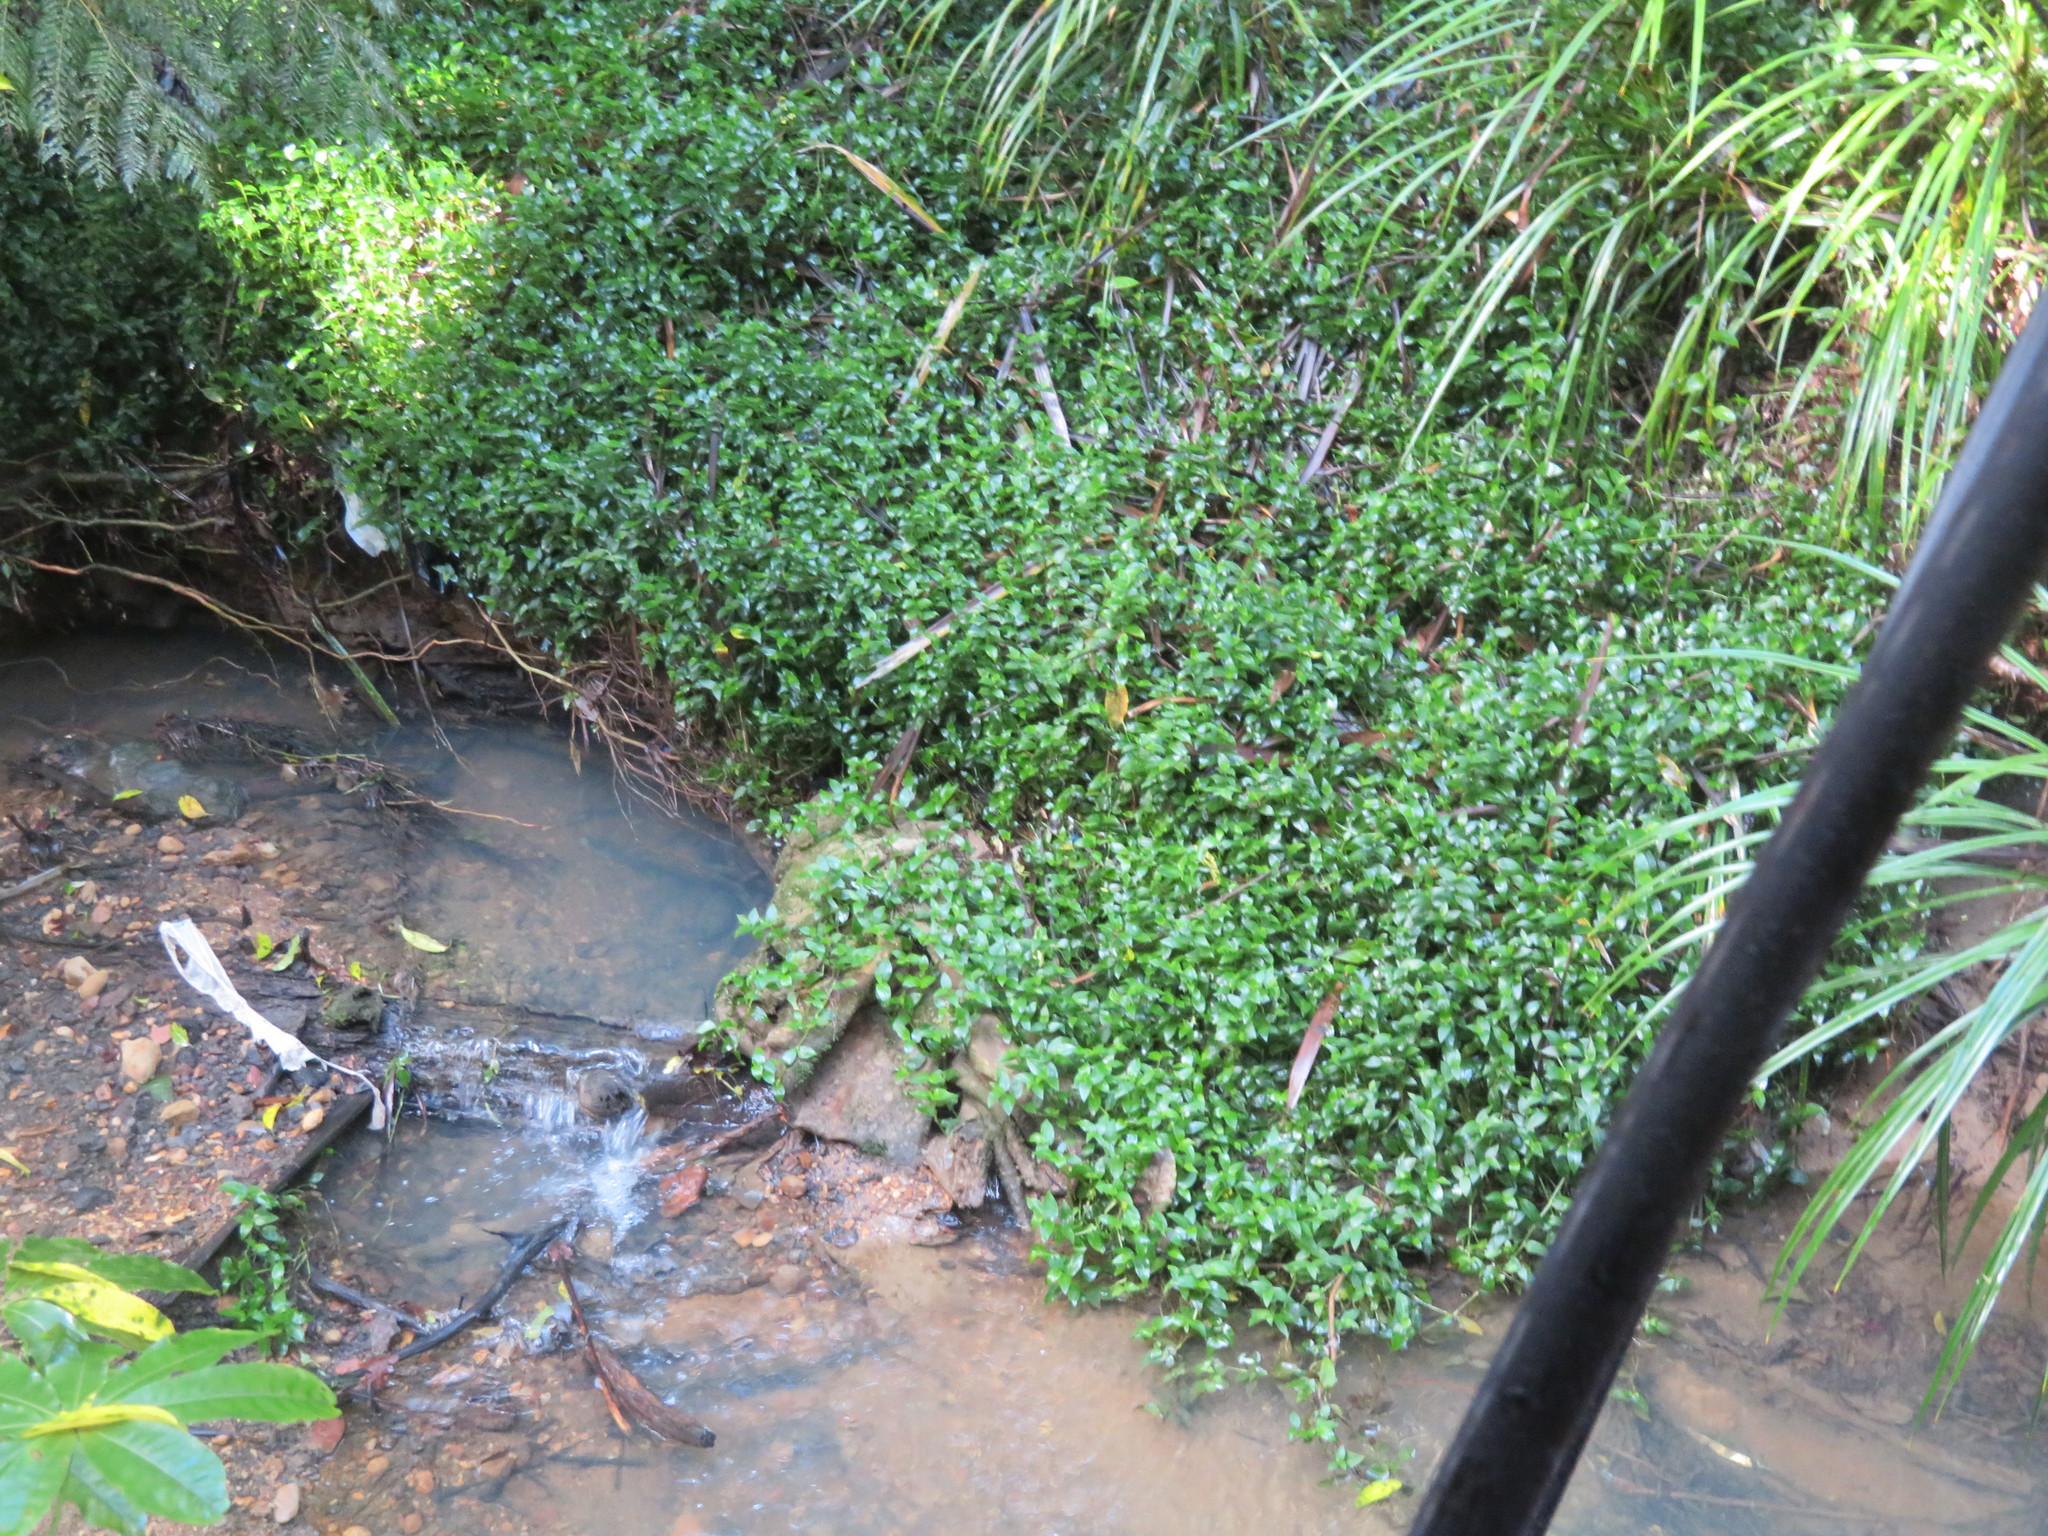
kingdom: Plantae
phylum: Tracheophyta
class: Liliopsida
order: Commelinales
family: Commelinaceae
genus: Tradescantia
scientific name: Tradescantia fluminensis
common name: Wandering-jew
